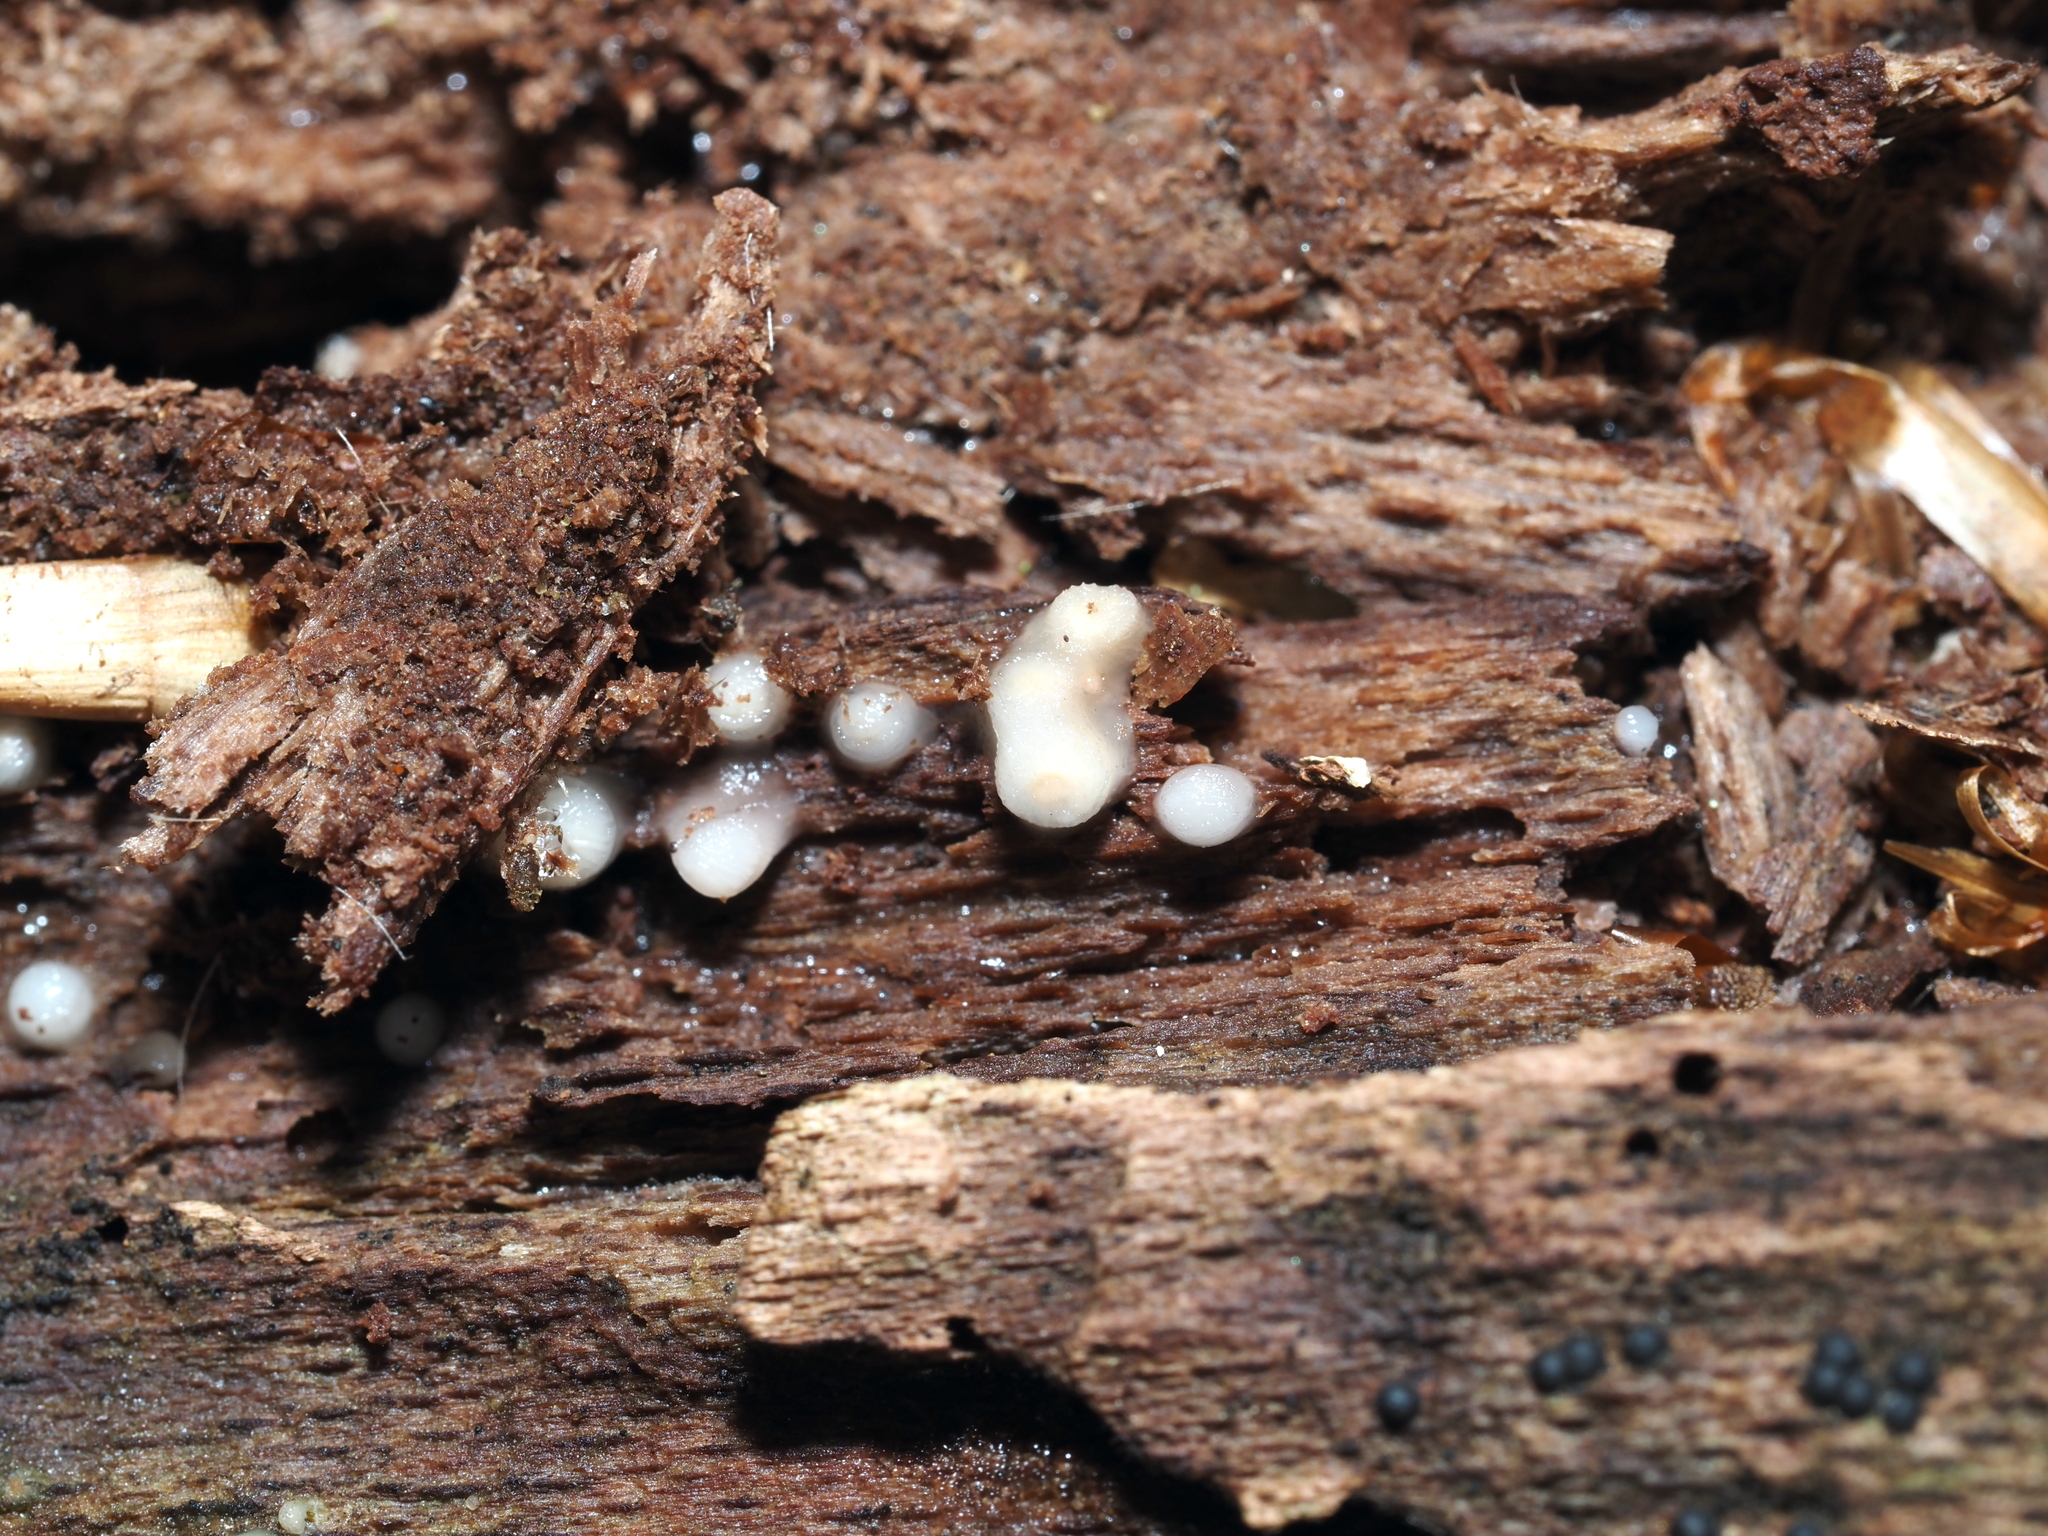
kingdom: Fungi
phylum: Basidiomycota
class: Atractiellomycetes
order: Atractiellales
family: Phleogenaceae
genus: Helicogloea
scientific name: Helicogloea compressa
